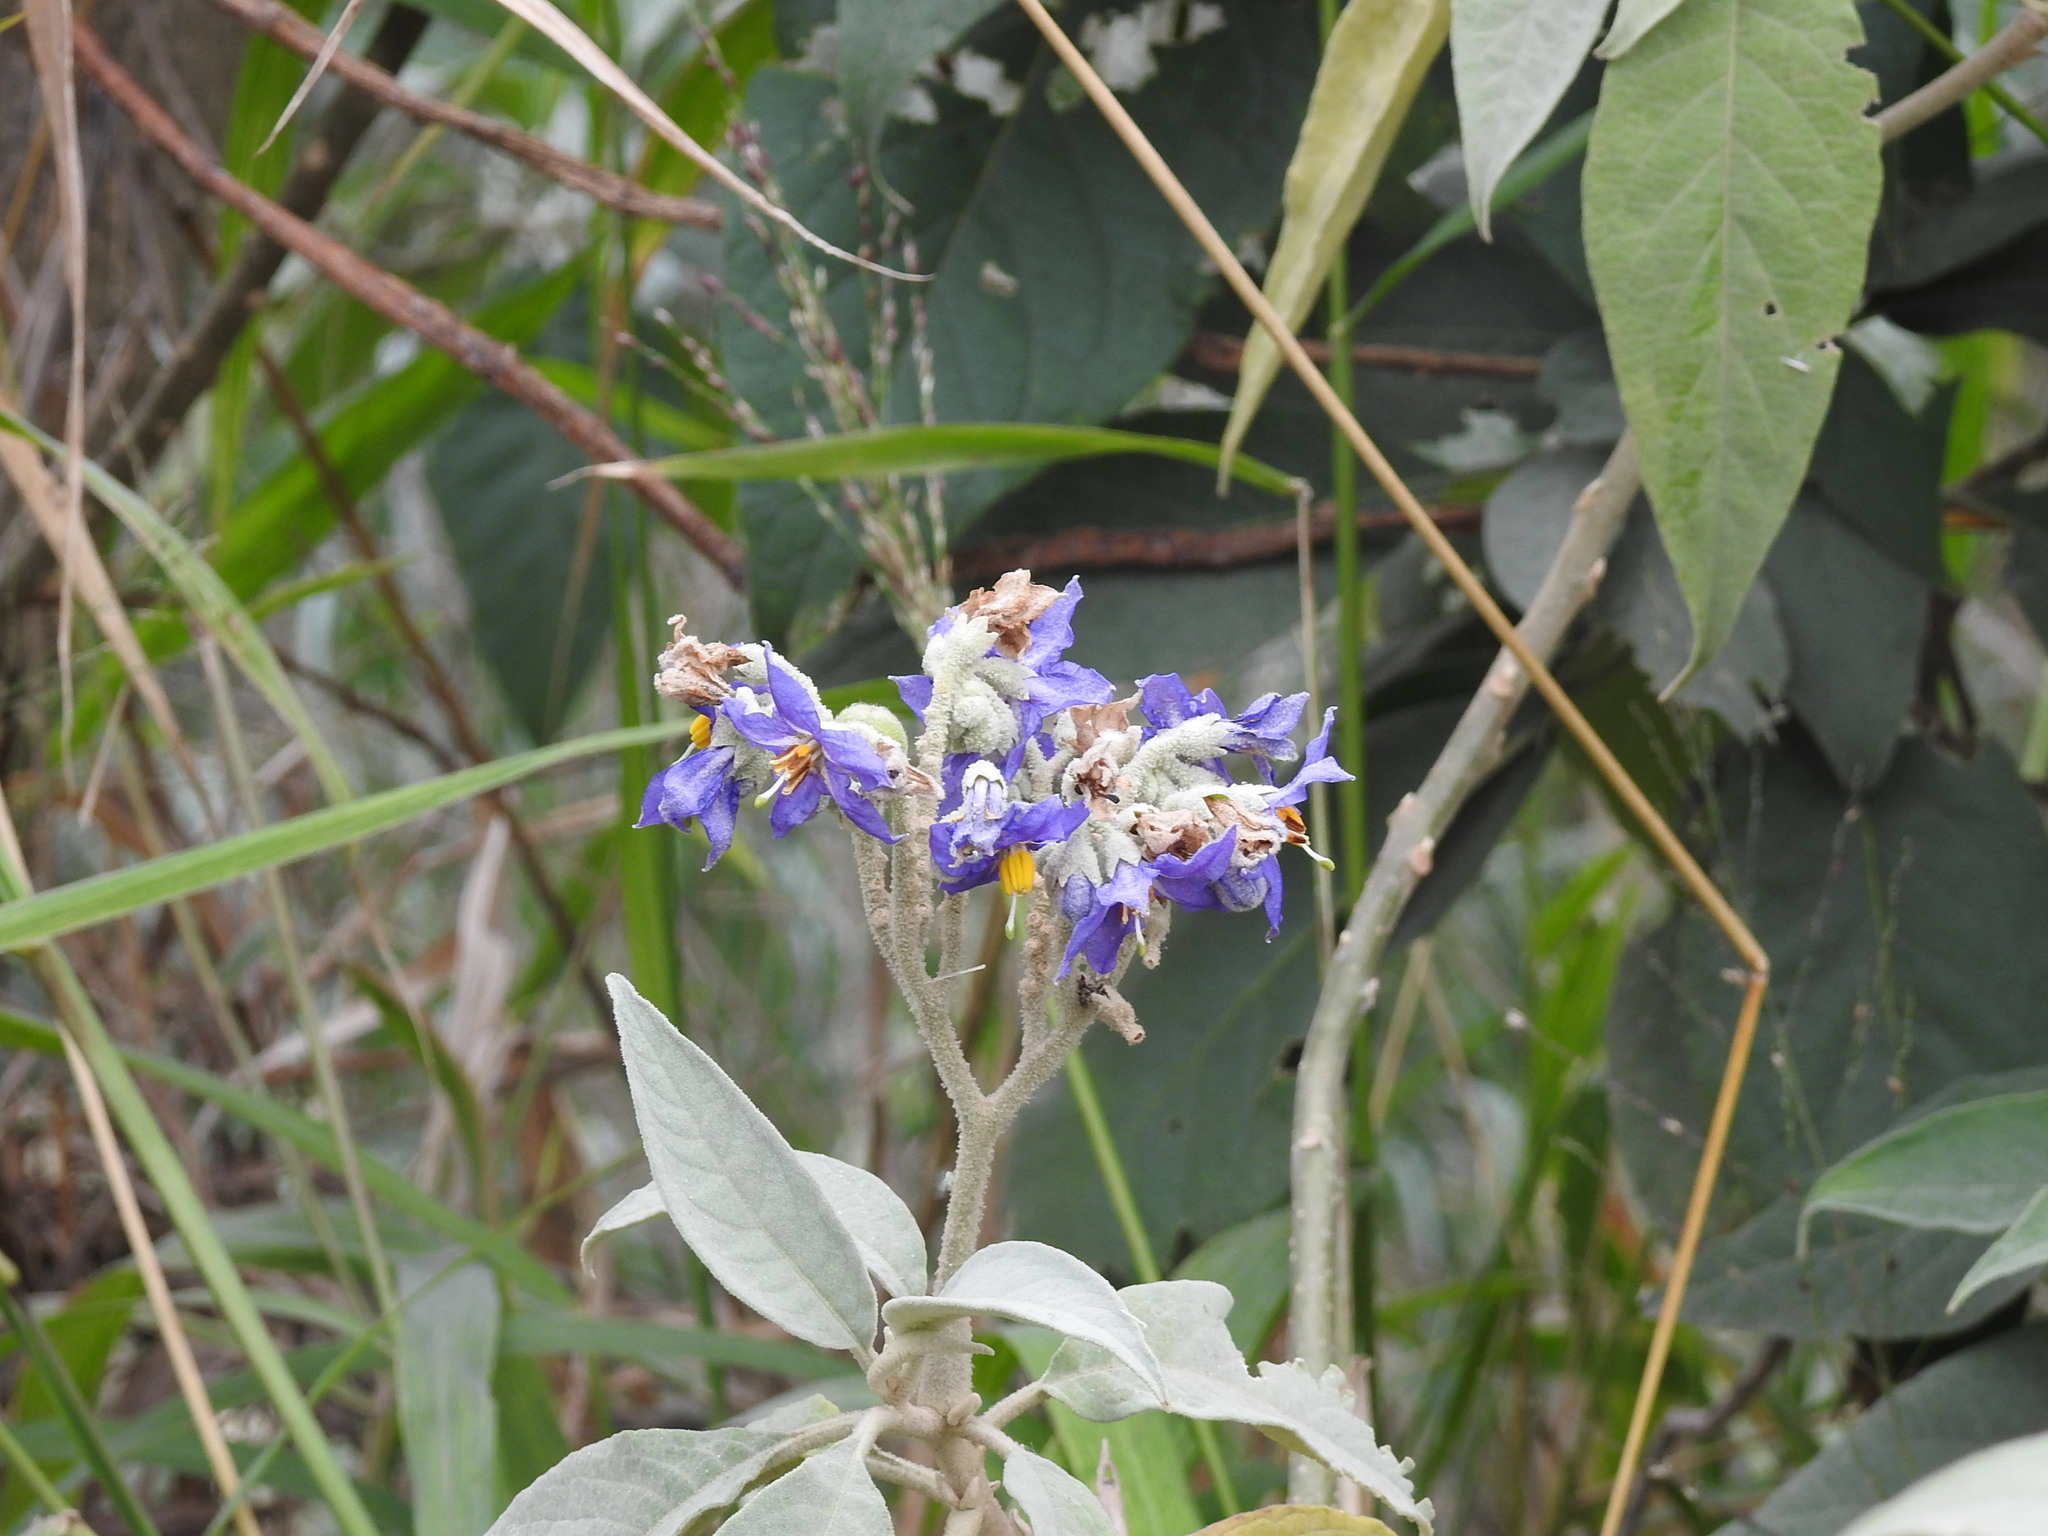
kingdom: Plantae
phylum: Tracheophyta
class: Magnoliopsida
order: Solanales
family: Solanaceae
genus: Solanum
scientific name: Solanum granulosoleprosum
